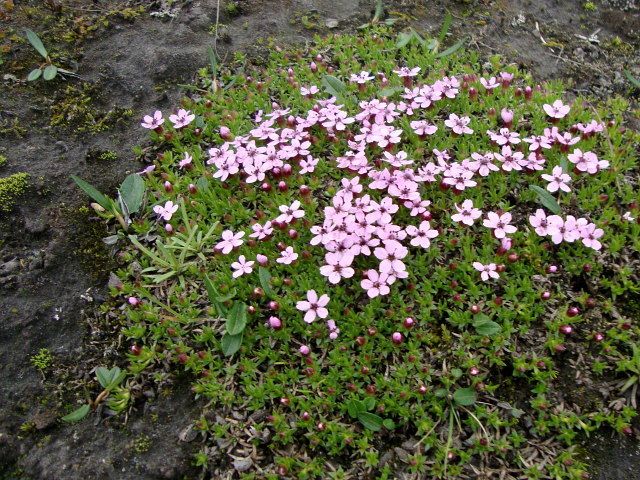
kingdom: Plantae
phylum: Tracheophyta
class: Magnoliopsida
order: Caryophyllales
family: Caryophyllaceae
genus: Silene
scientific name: Silene acaulis
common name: Moss campion
